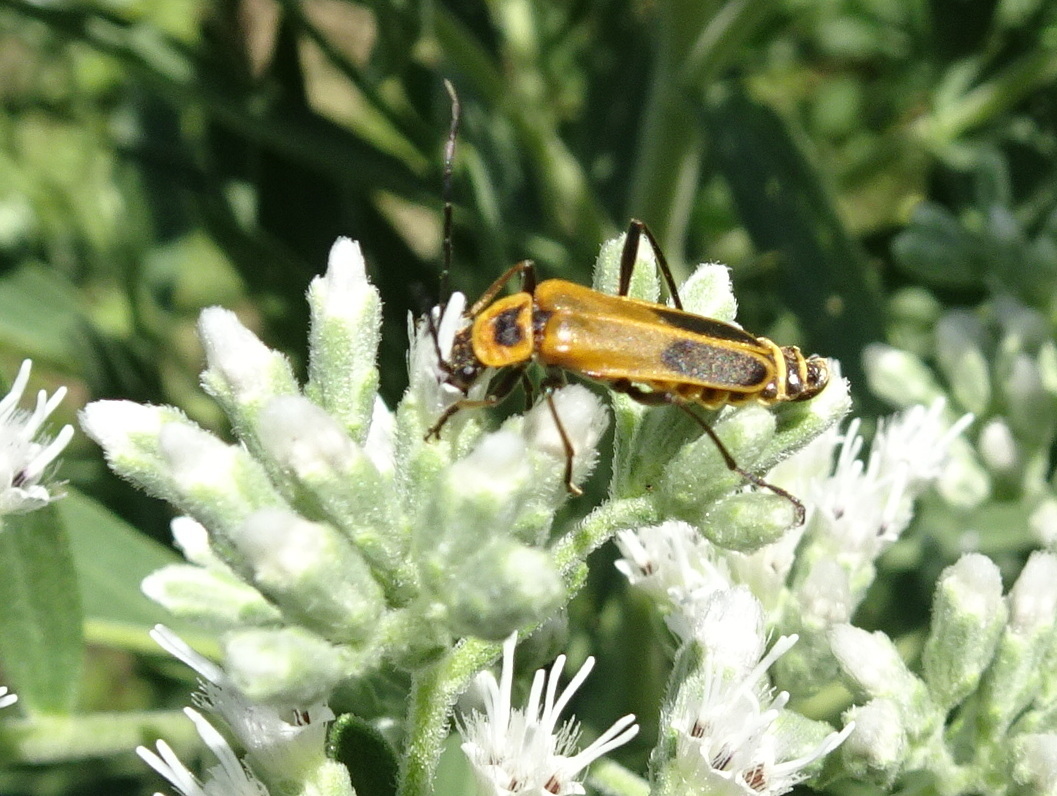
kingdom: Animalia
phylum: Arthropoda
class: Insecta
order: Coleoptera
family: Cantharidae
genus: Chauliognathus
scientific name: Chauliognathus pensylvanicus
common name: Goldenrod soldier beetle
